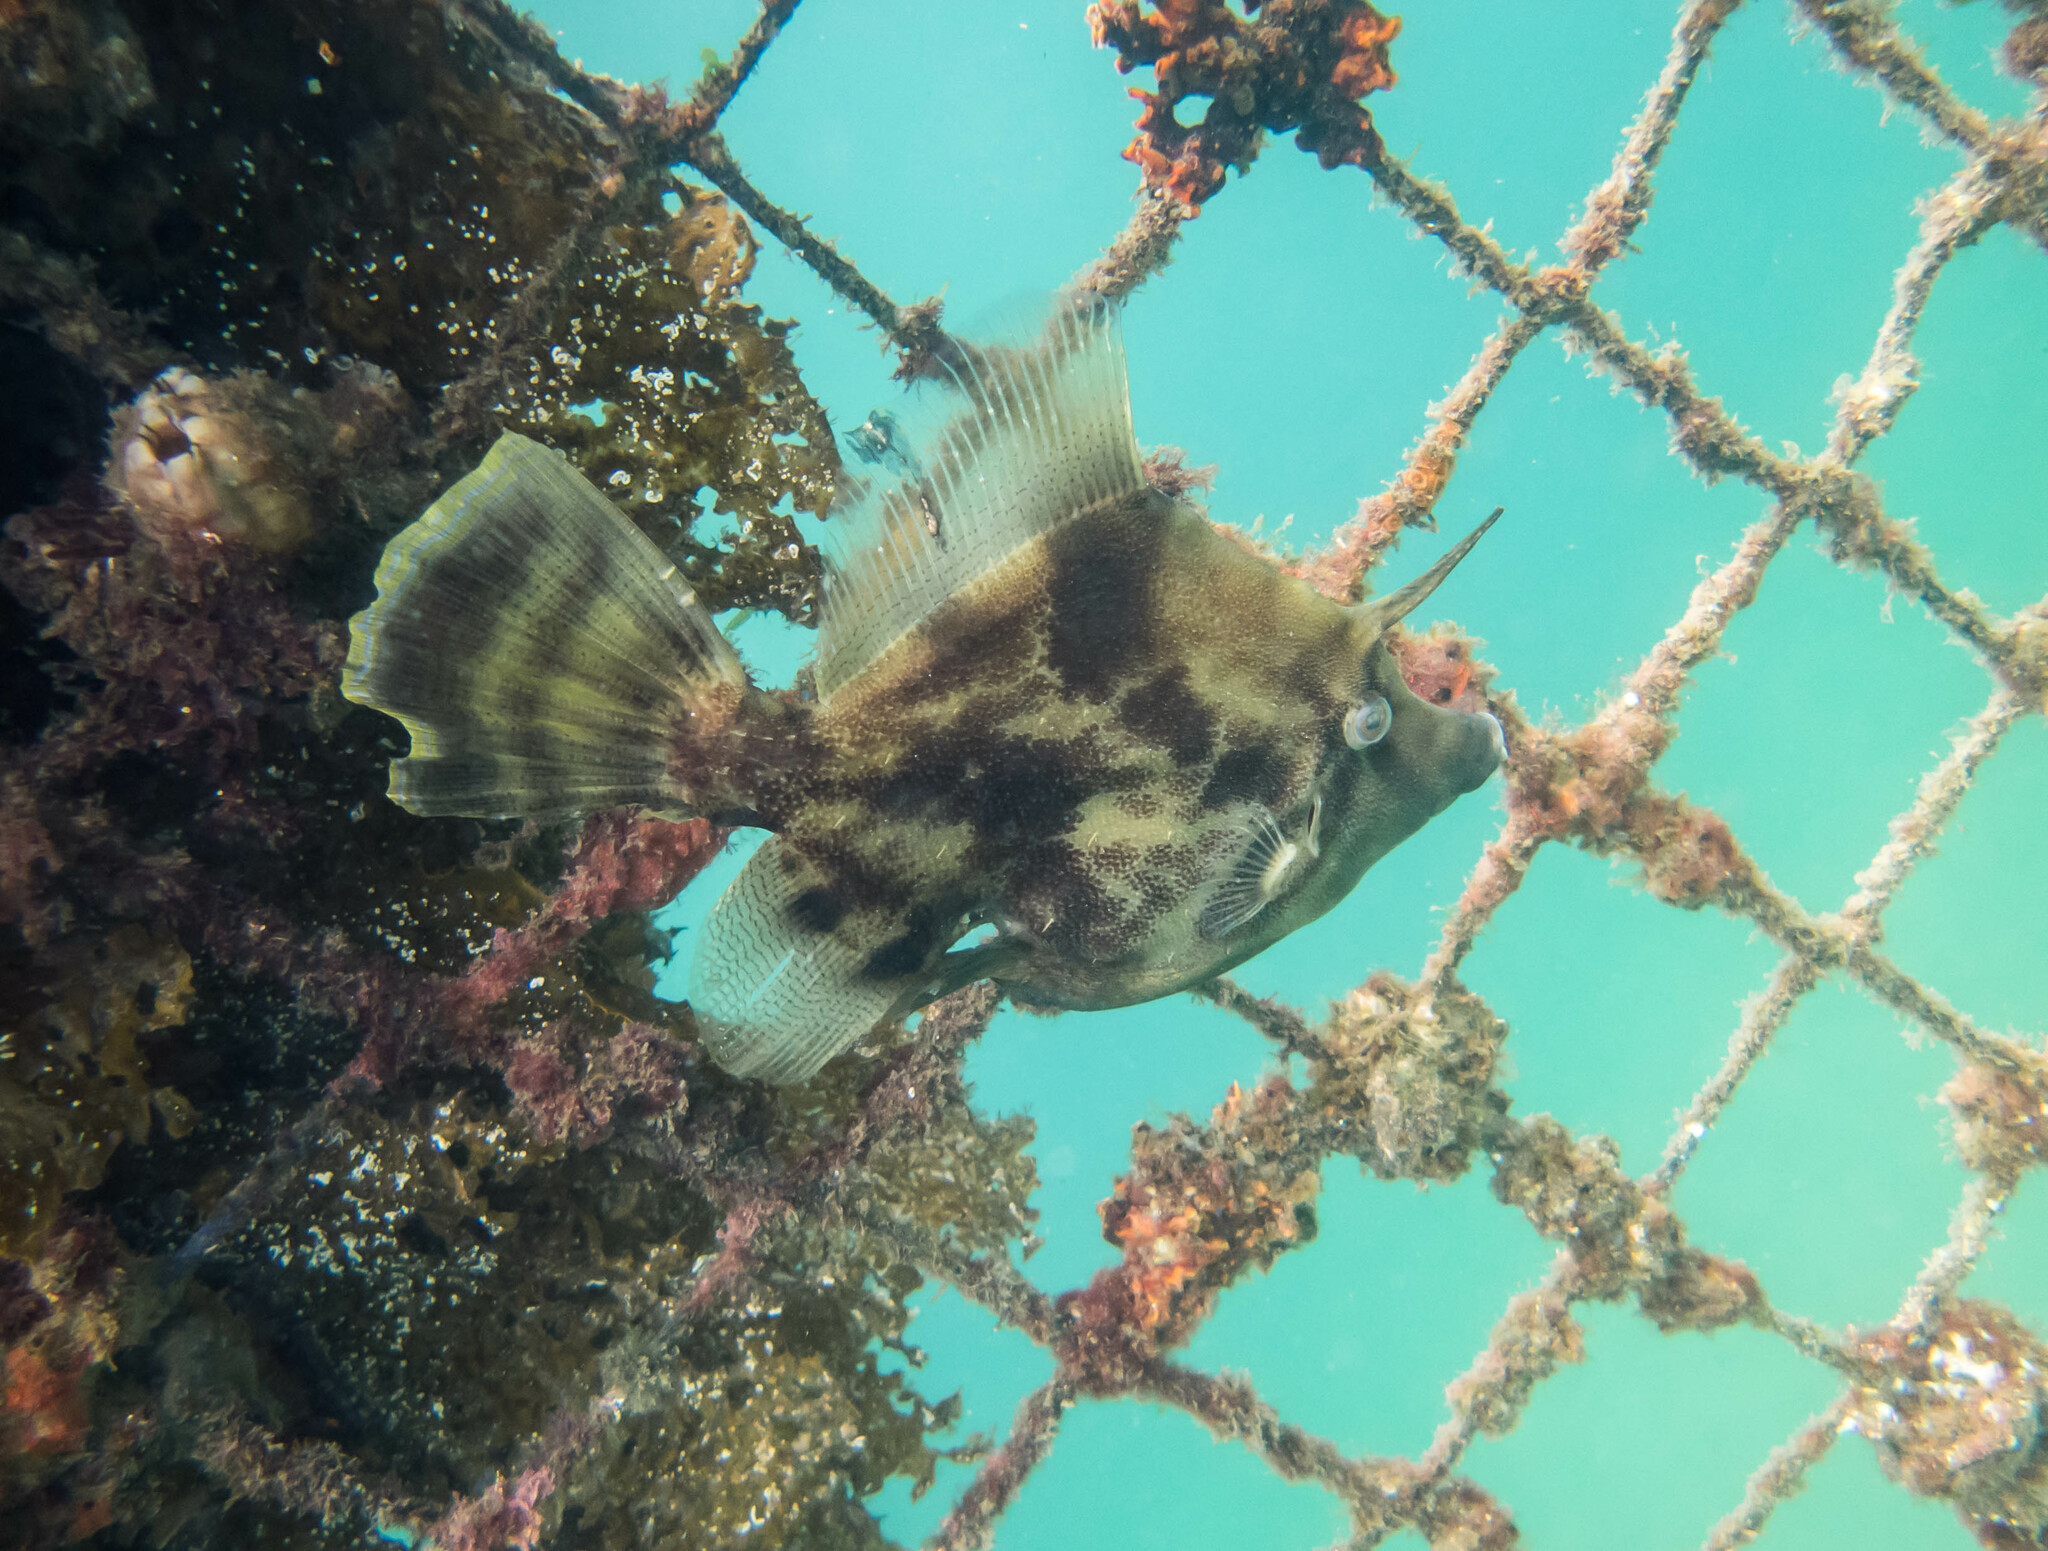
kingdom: Animalia
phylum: Chordata
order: Tetraodontiformes
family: Monacanthidae
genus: Monacanthus
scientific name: Monacanthus chinensis
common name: Centreboard leatherjacket
